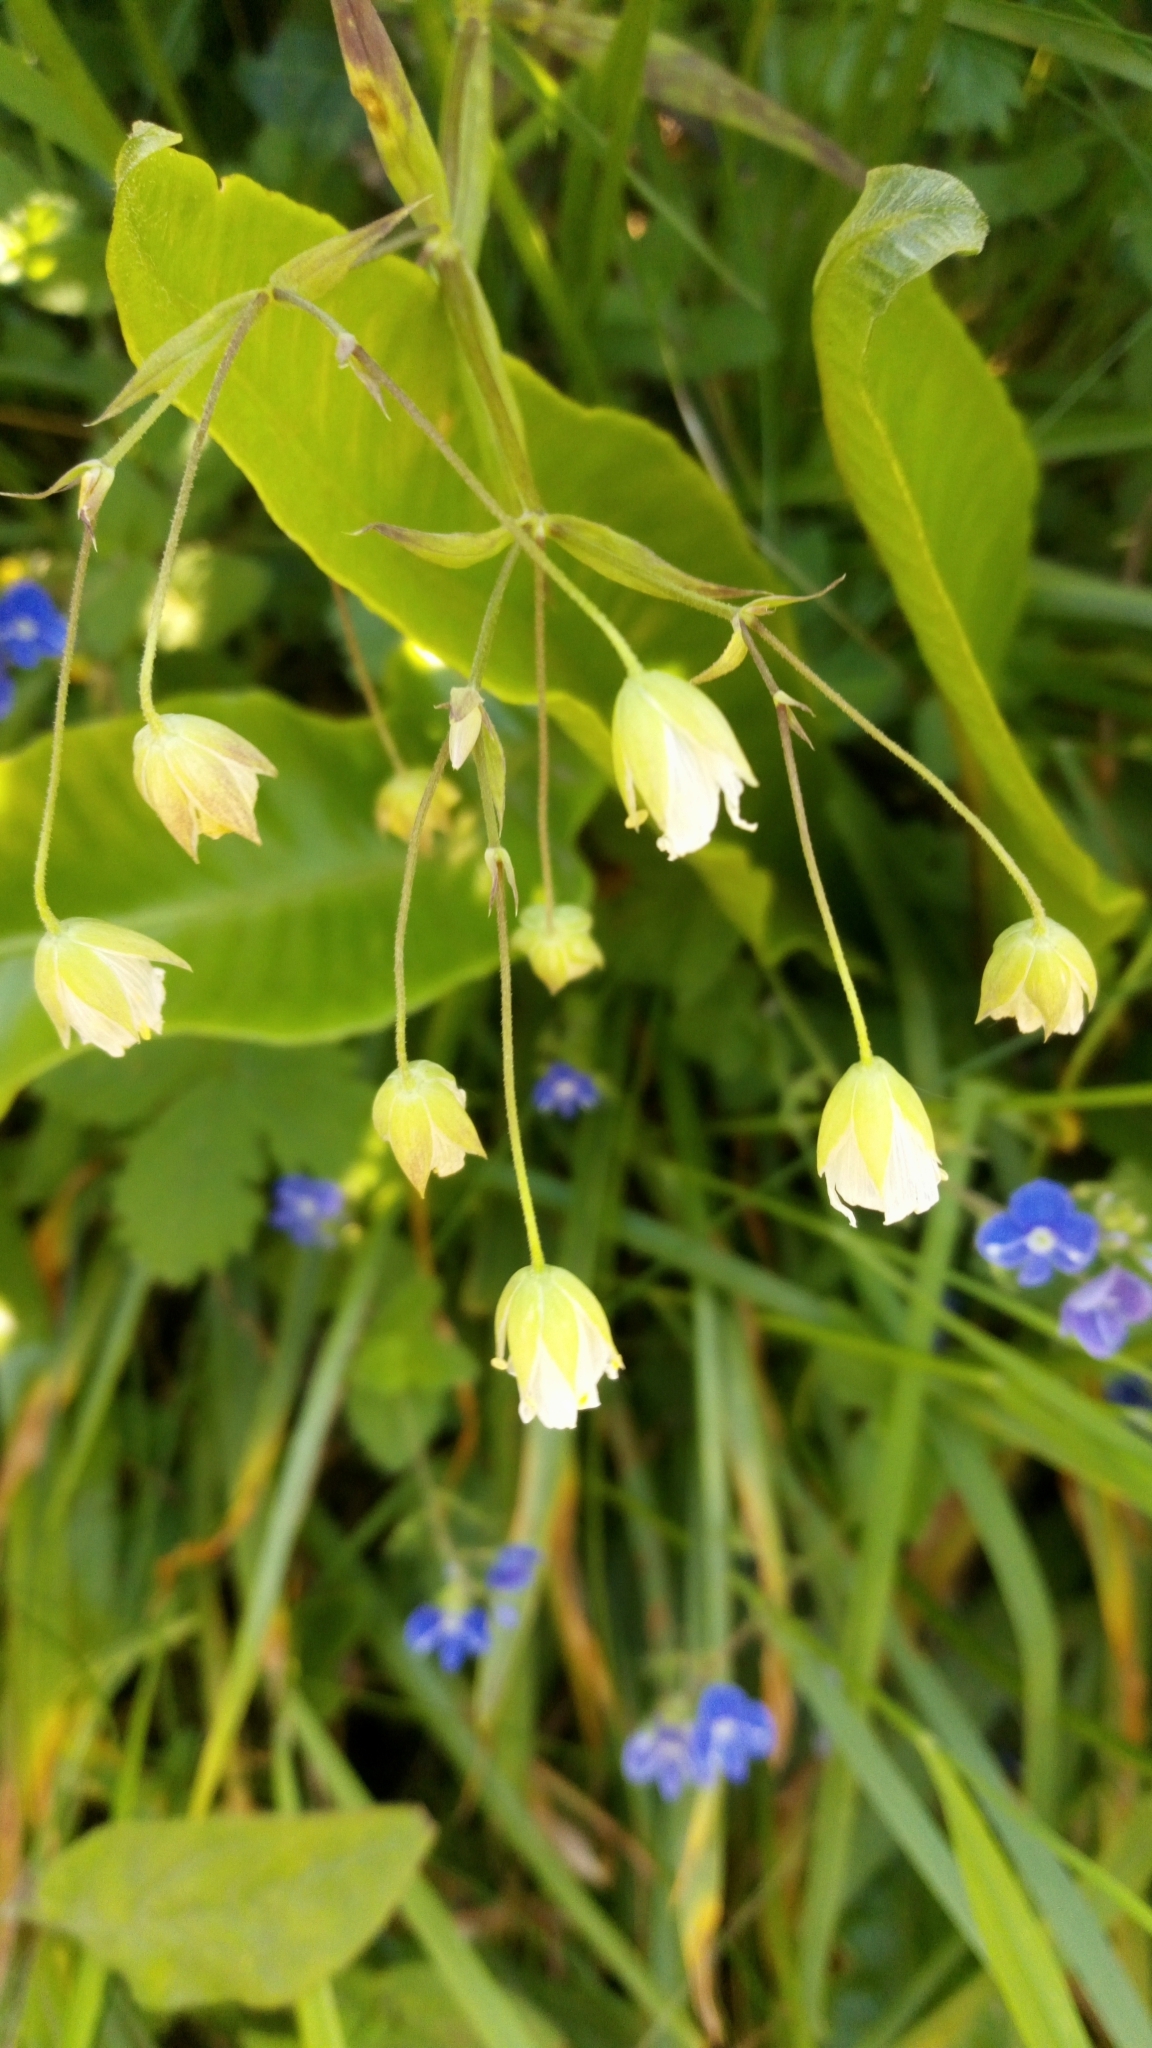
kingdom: Plantae
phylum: Tracheophyta
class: Magnoliopsida
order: Caryophyllales
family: Caryophyllaceae
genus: Rabelera
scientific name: Rabelera holostea
